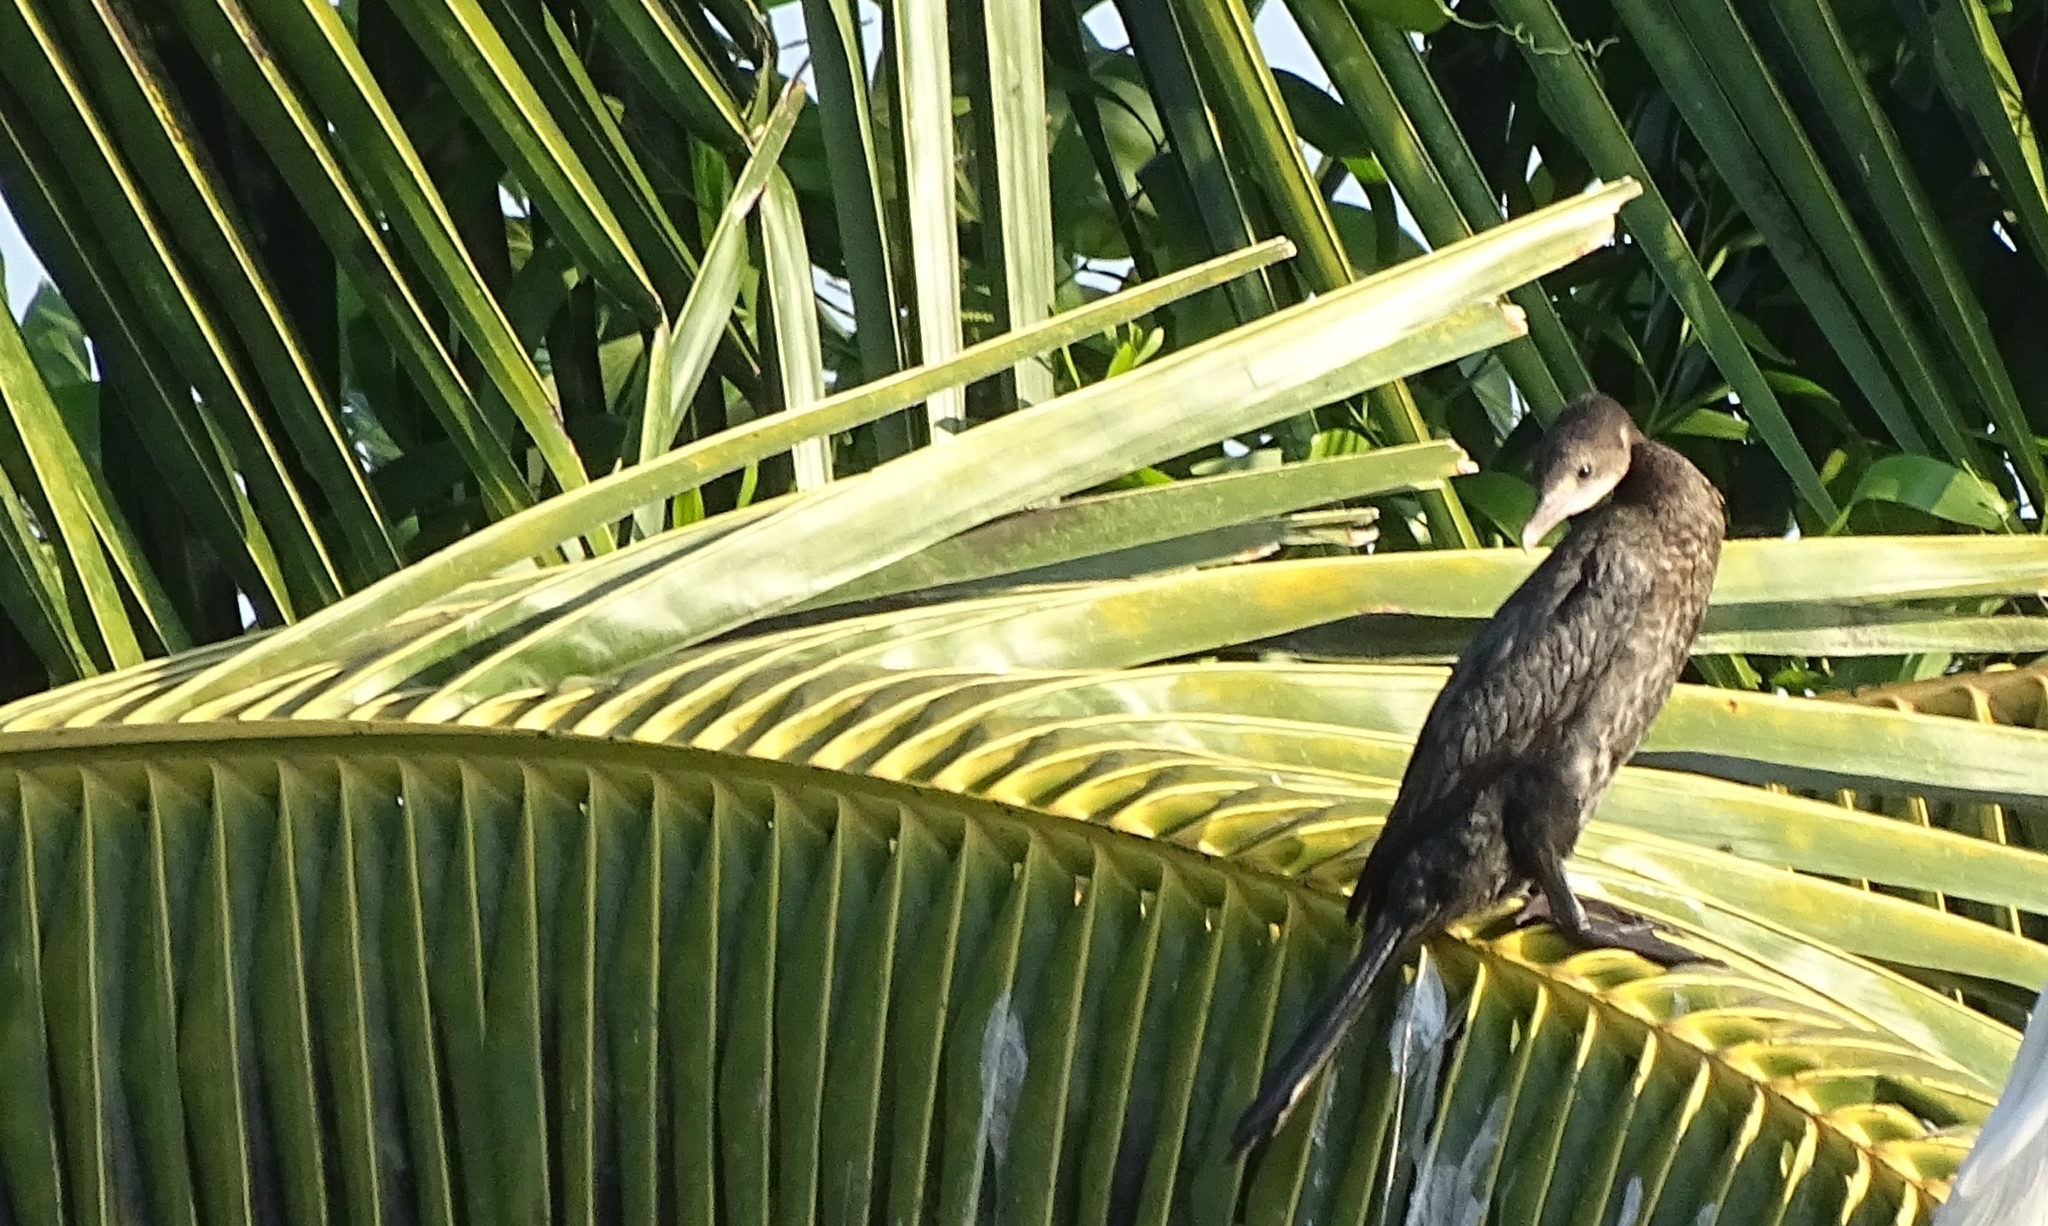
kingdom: Animalia
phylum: Chordata
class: Aves
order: Suliformes
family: Phalacrocoracidae
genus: Microcarbo
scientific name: Microcarbo niger
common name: Little cormorant
